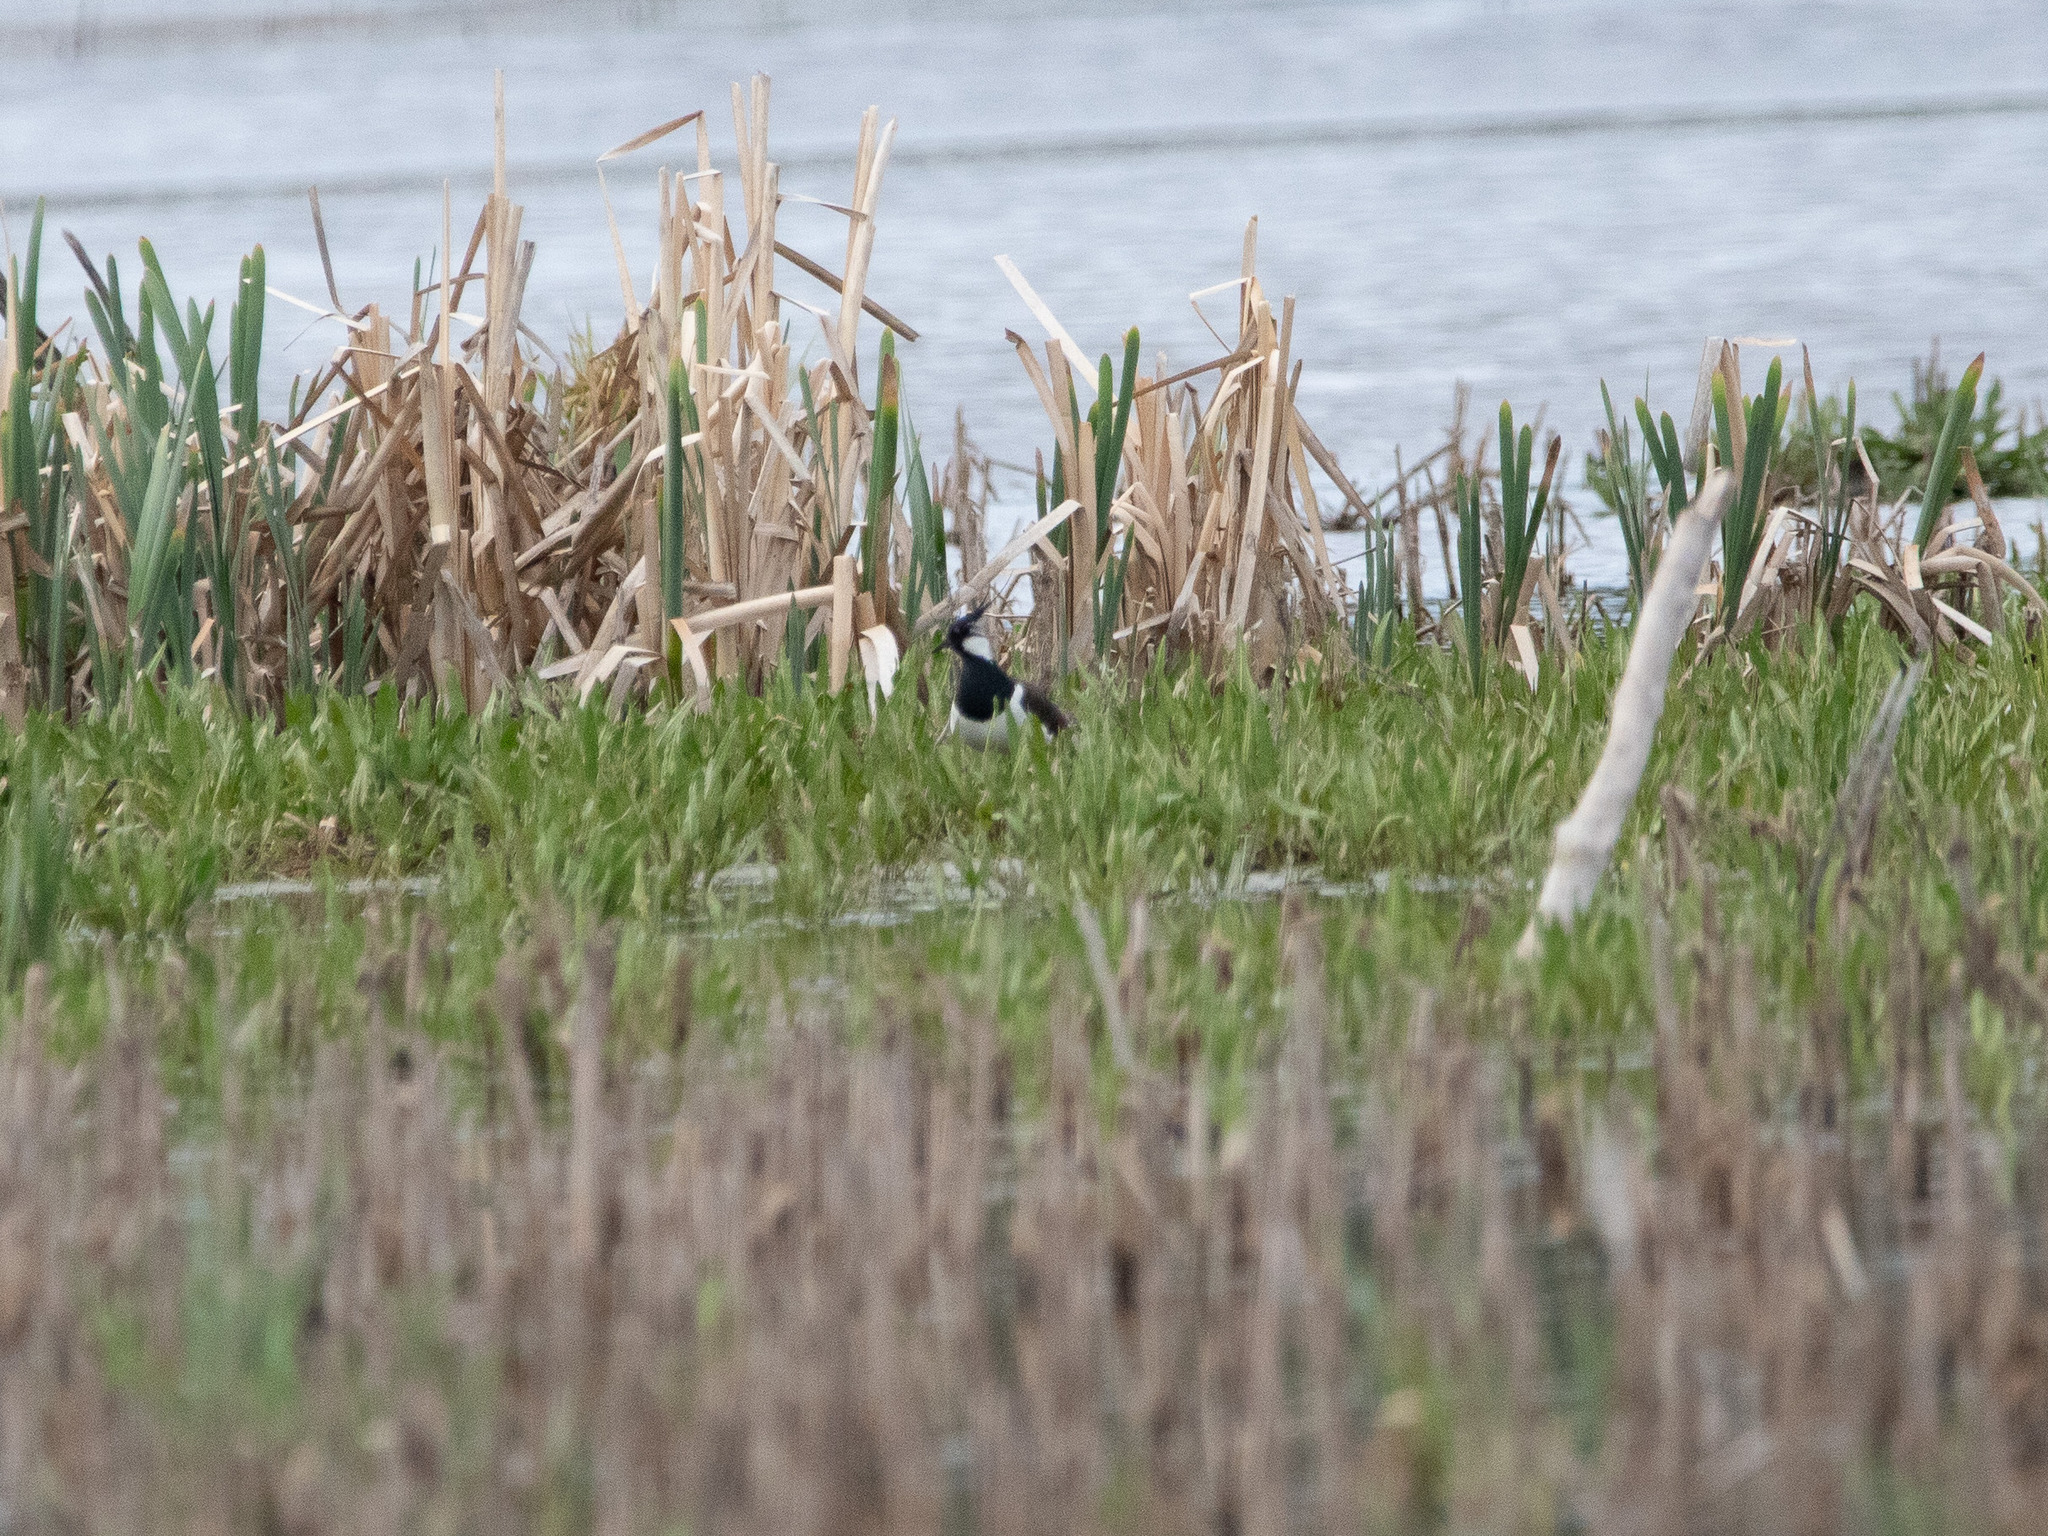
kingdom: Animalia
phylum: Chordata
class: Aves
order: Charadriiformes
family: Charadriidae
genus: Vanellus
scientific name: Vanellus vanellus
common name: Northern lapwing
